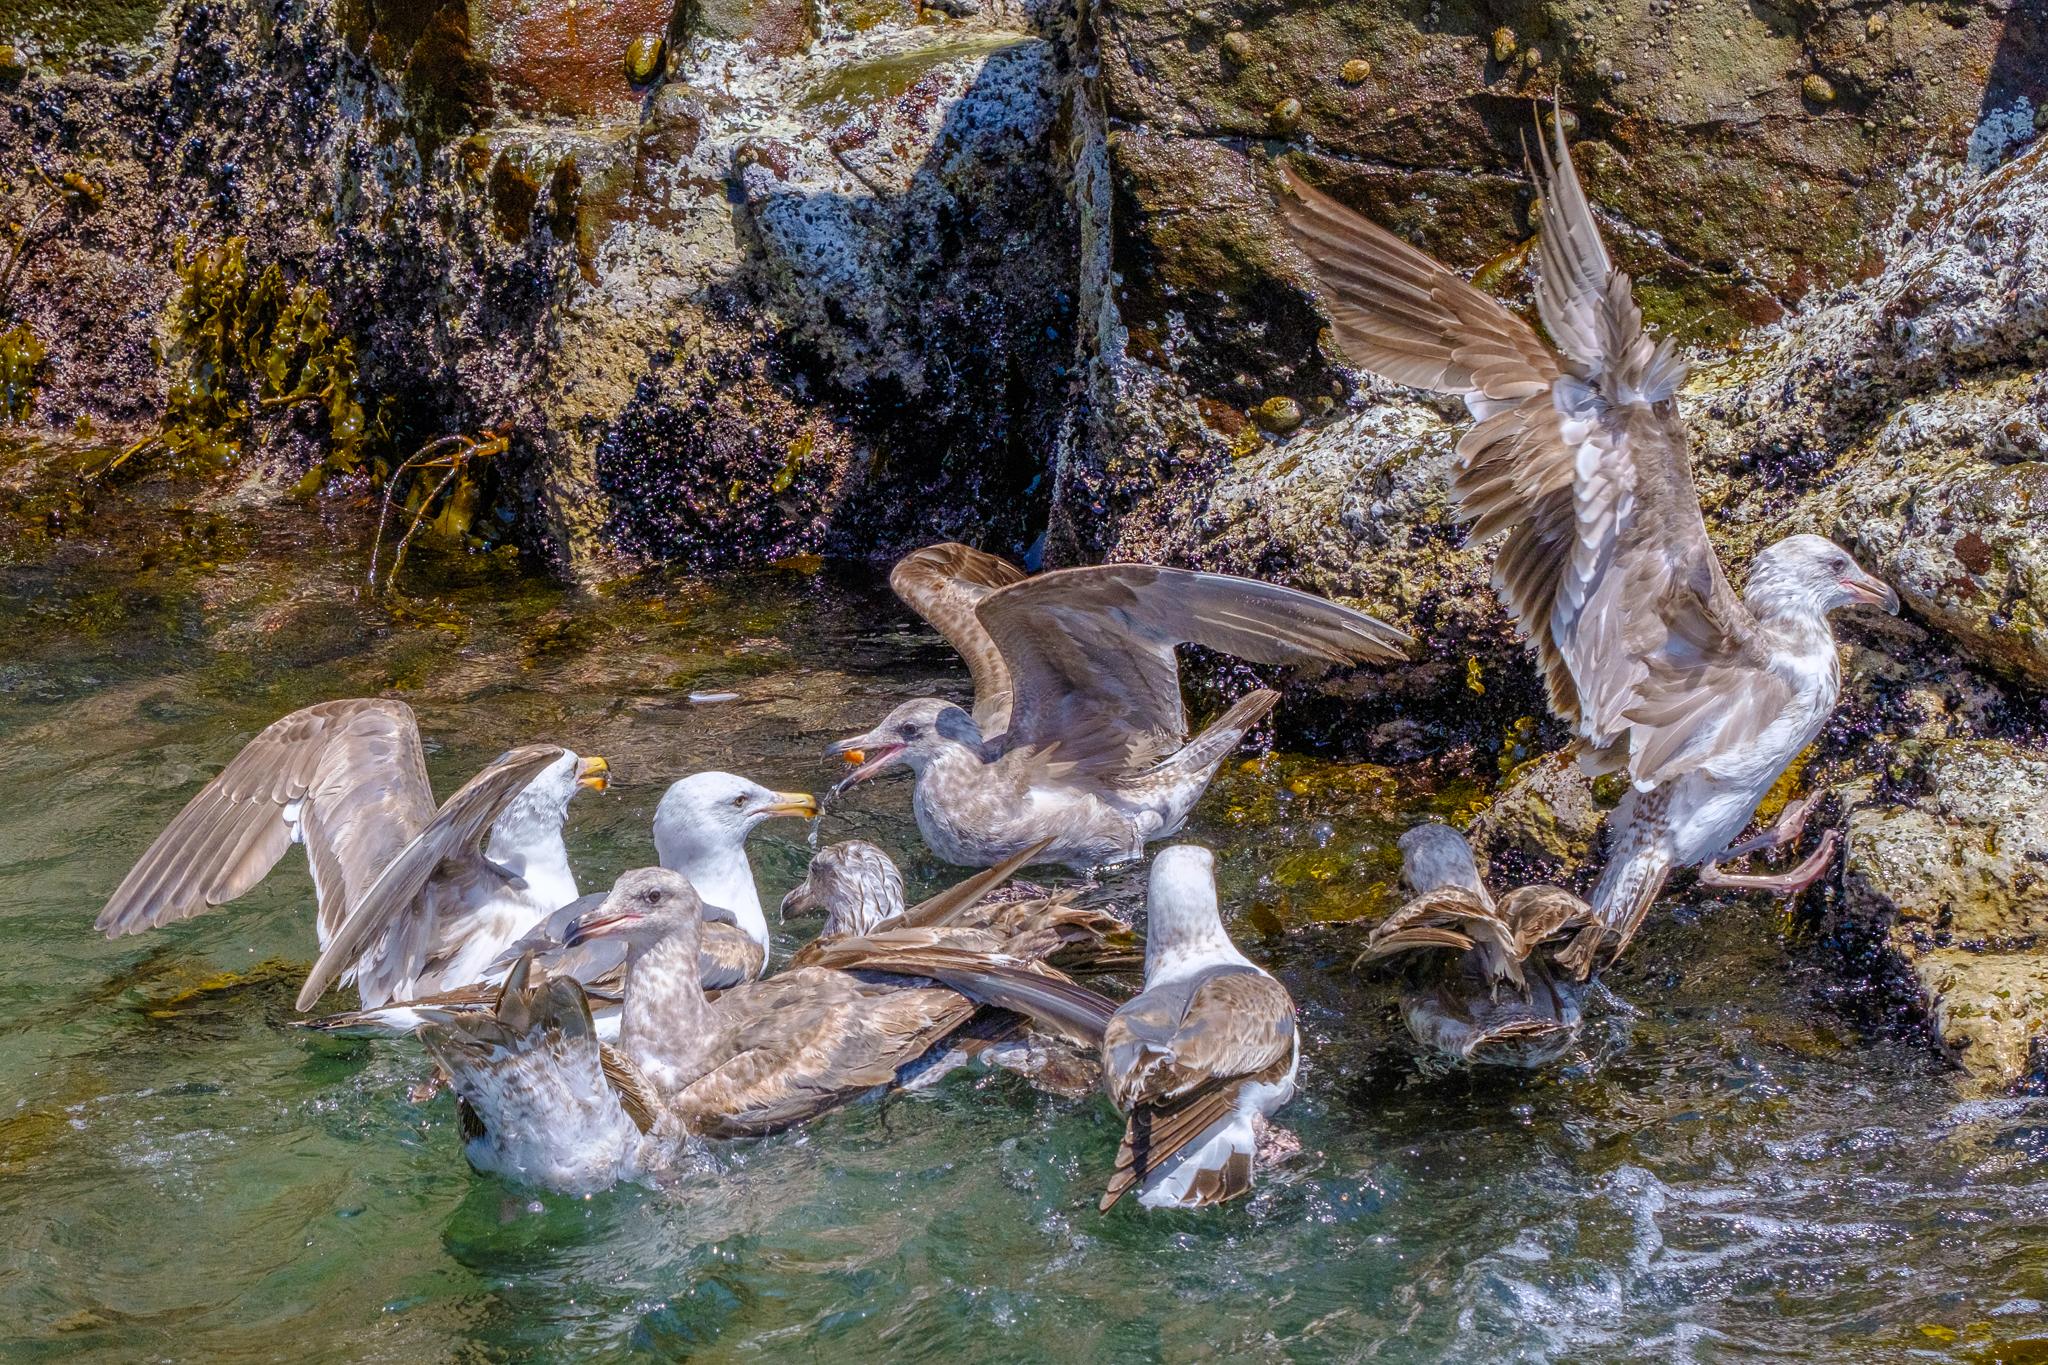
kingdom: Animalia
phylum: Chordata
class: Aves
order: Charadriiformes
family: Laridae
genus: Larus
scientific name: Larus occidentalis
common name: Western gull
